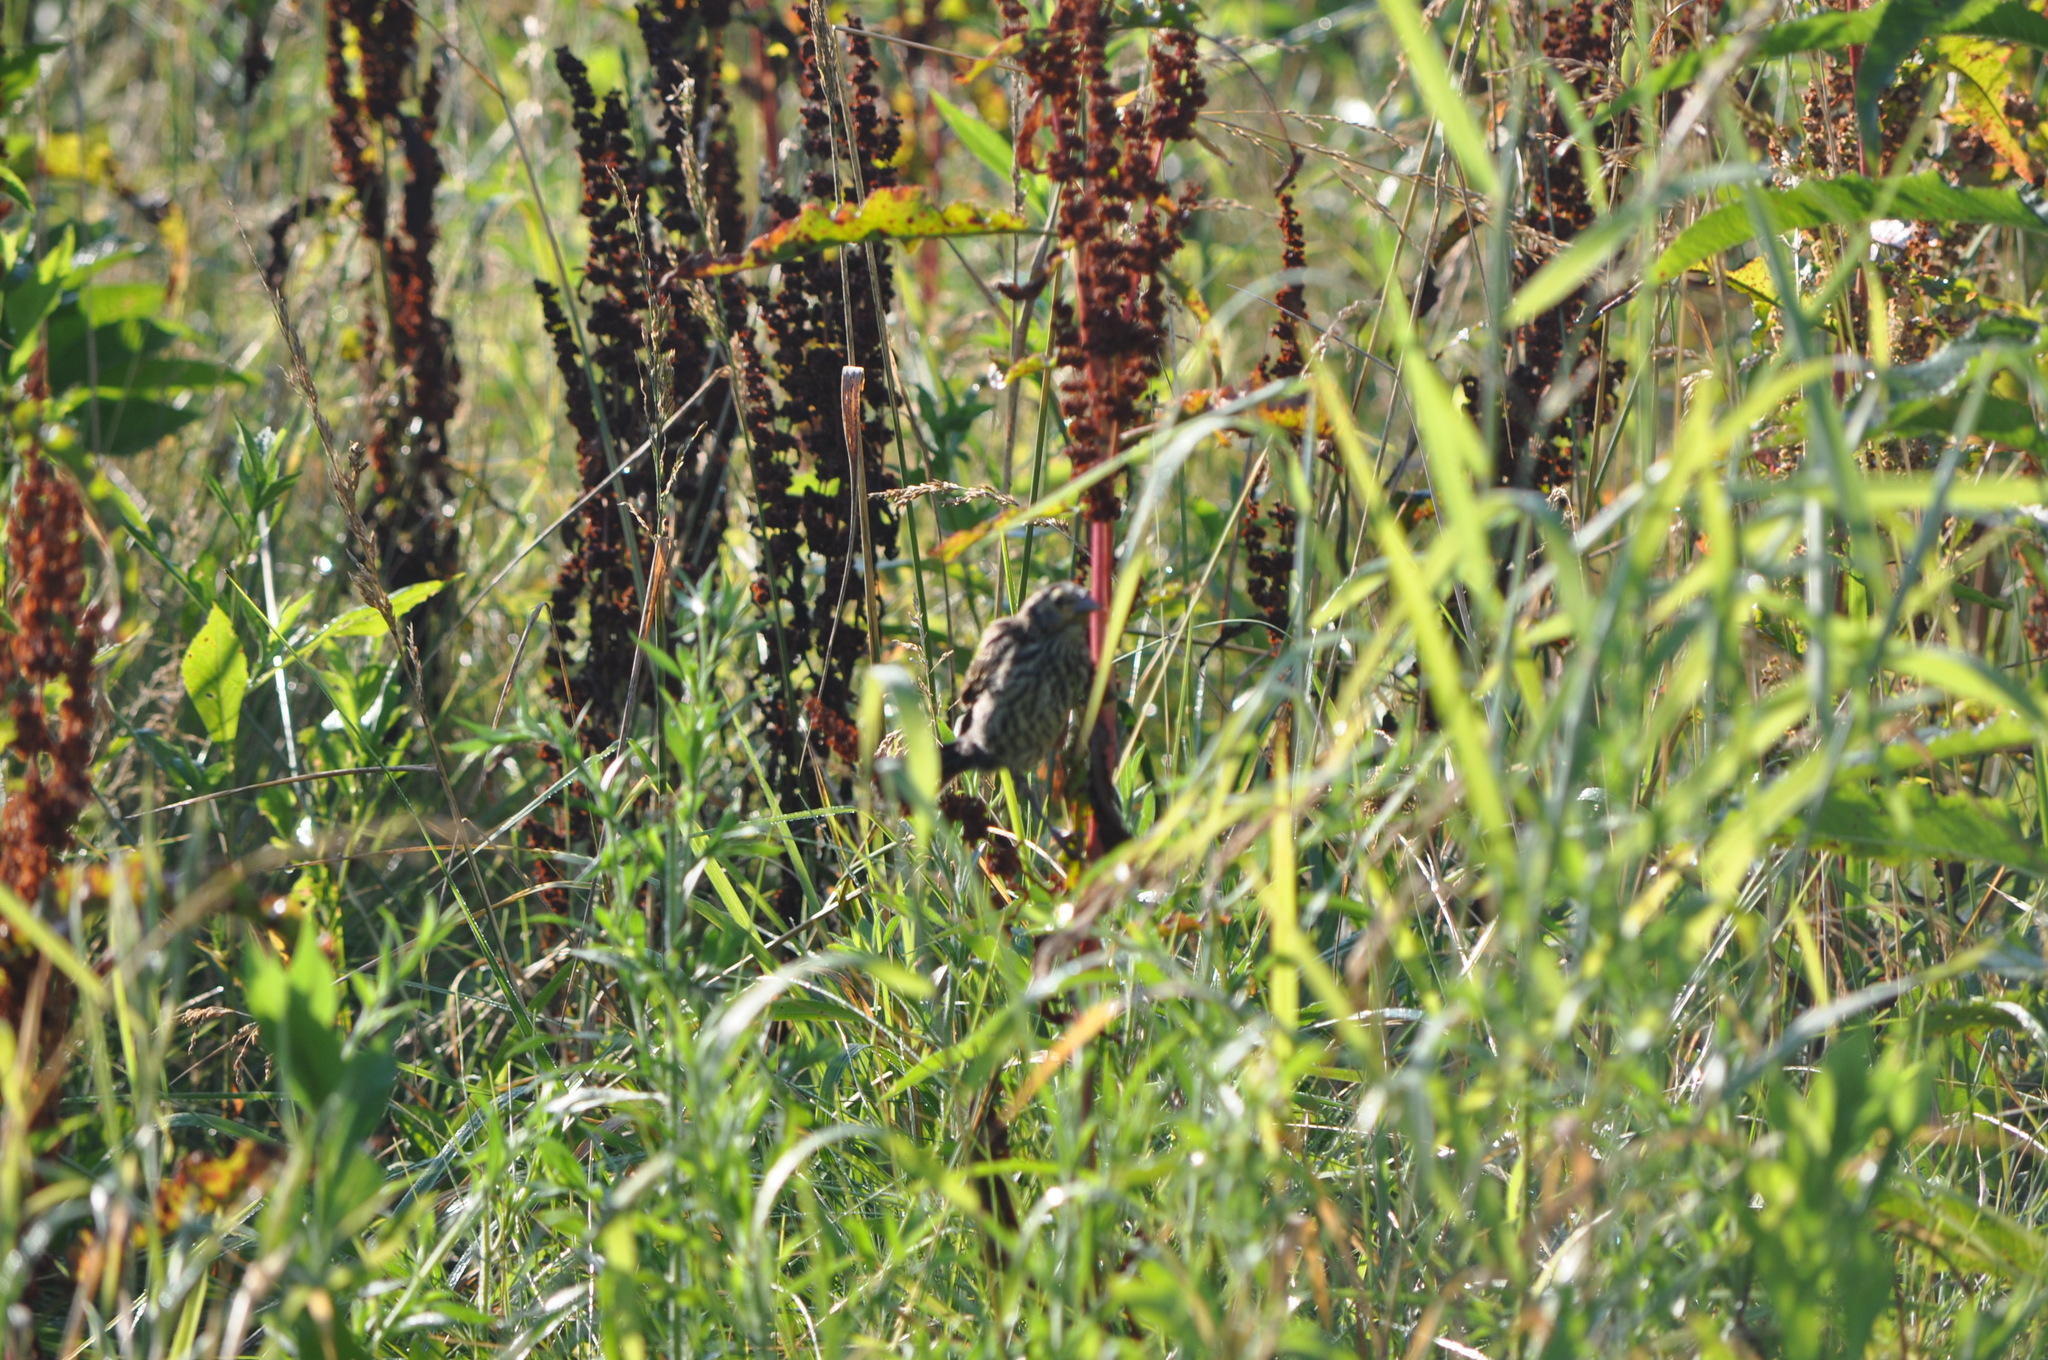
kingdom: Animalia
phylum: Chordata
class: Aves
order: Passeriformes
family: Icteridae
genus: Agelaius
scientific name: Agelaius phoeniceus
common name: Red-winged blackbird
